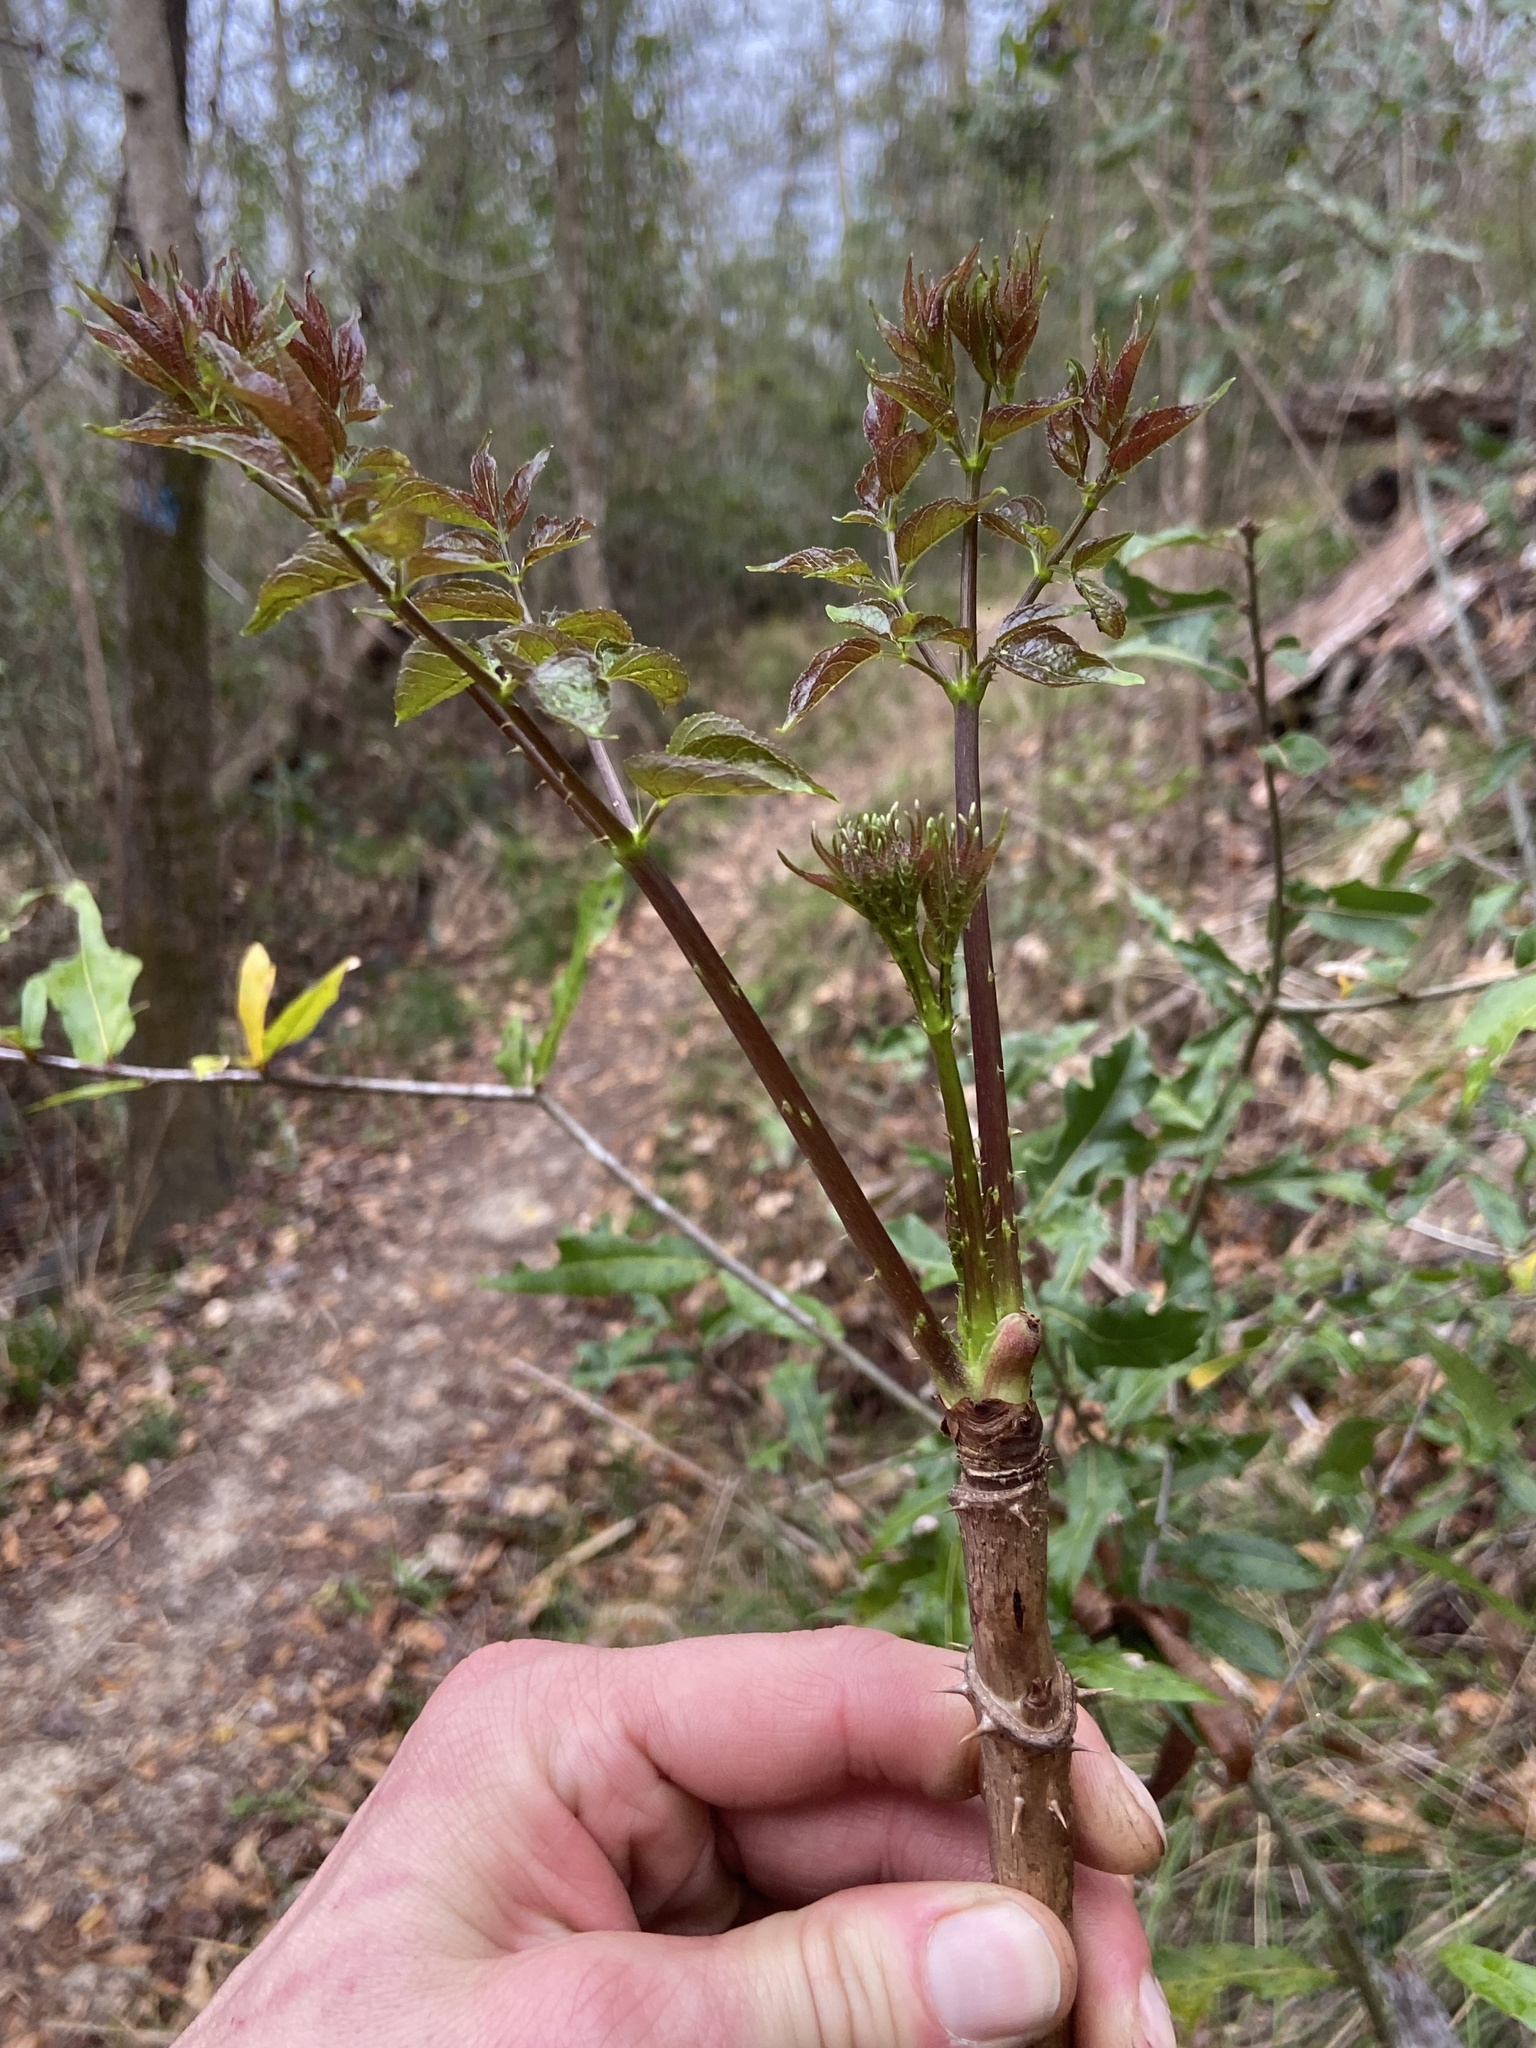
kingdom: Plantae
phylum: Tracheophyta
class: Magnoliopsida
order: Apiales
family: Araliaceae
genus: Aralia
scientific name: Aralia spinosa
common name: Hercules'-club
